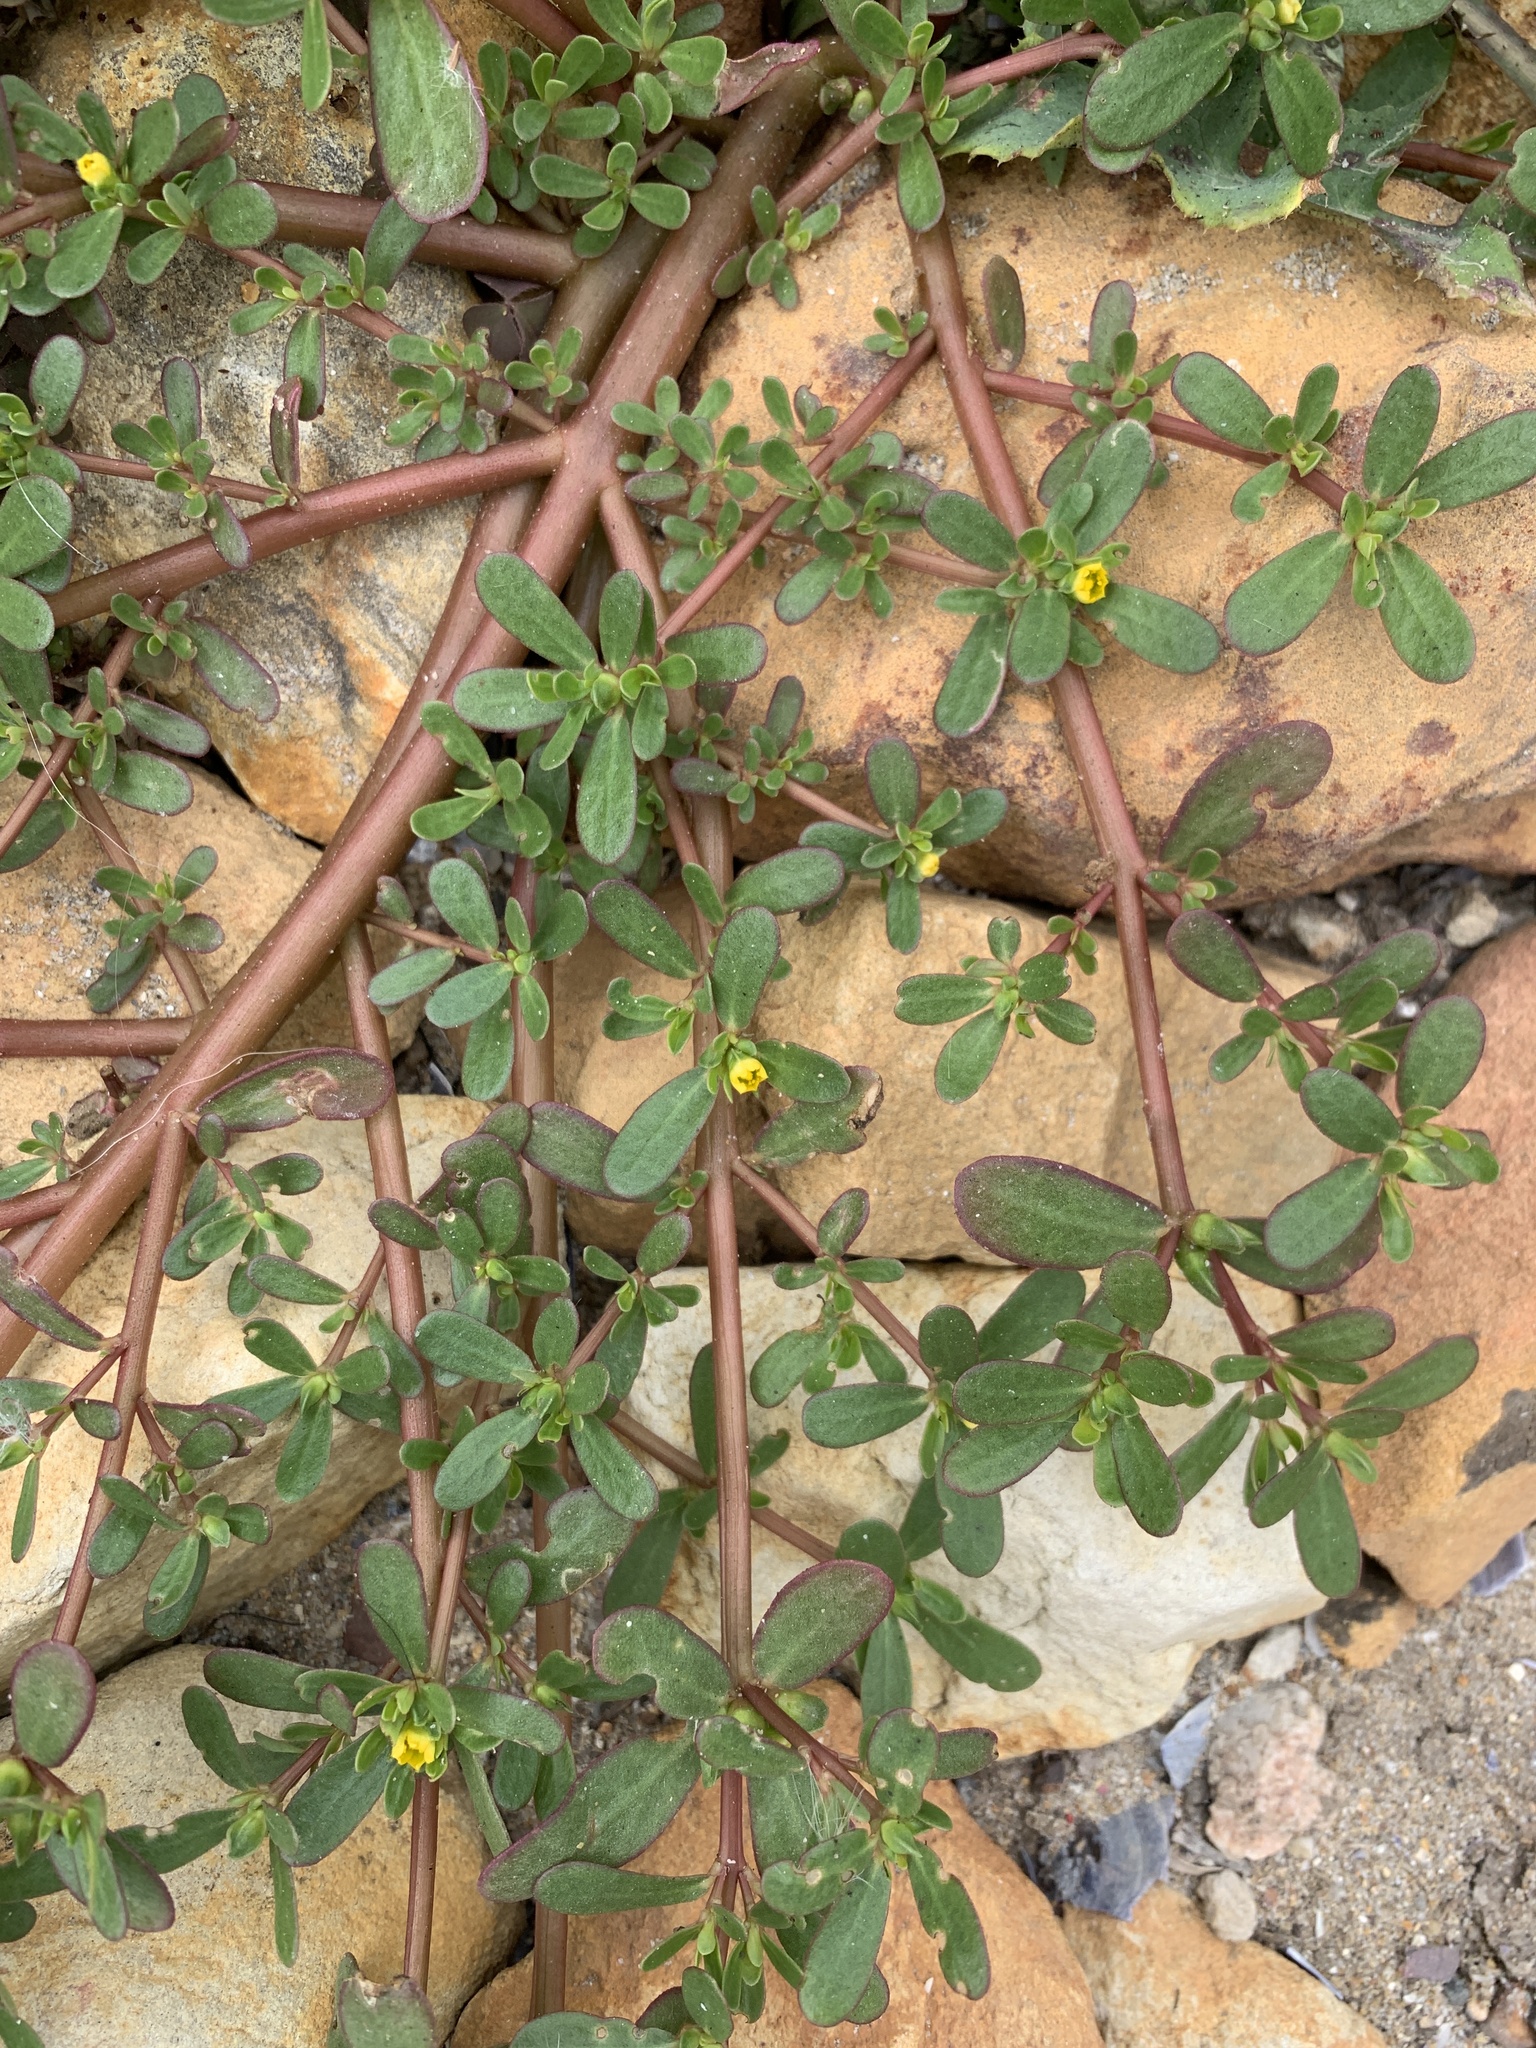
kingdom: Plantae
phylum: Tracheophyta
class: Magnoliopsida
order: Caryophyllales
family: Portulacaceae
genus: Portulaca
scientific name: Portulaca oleracea
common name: Common purslane
